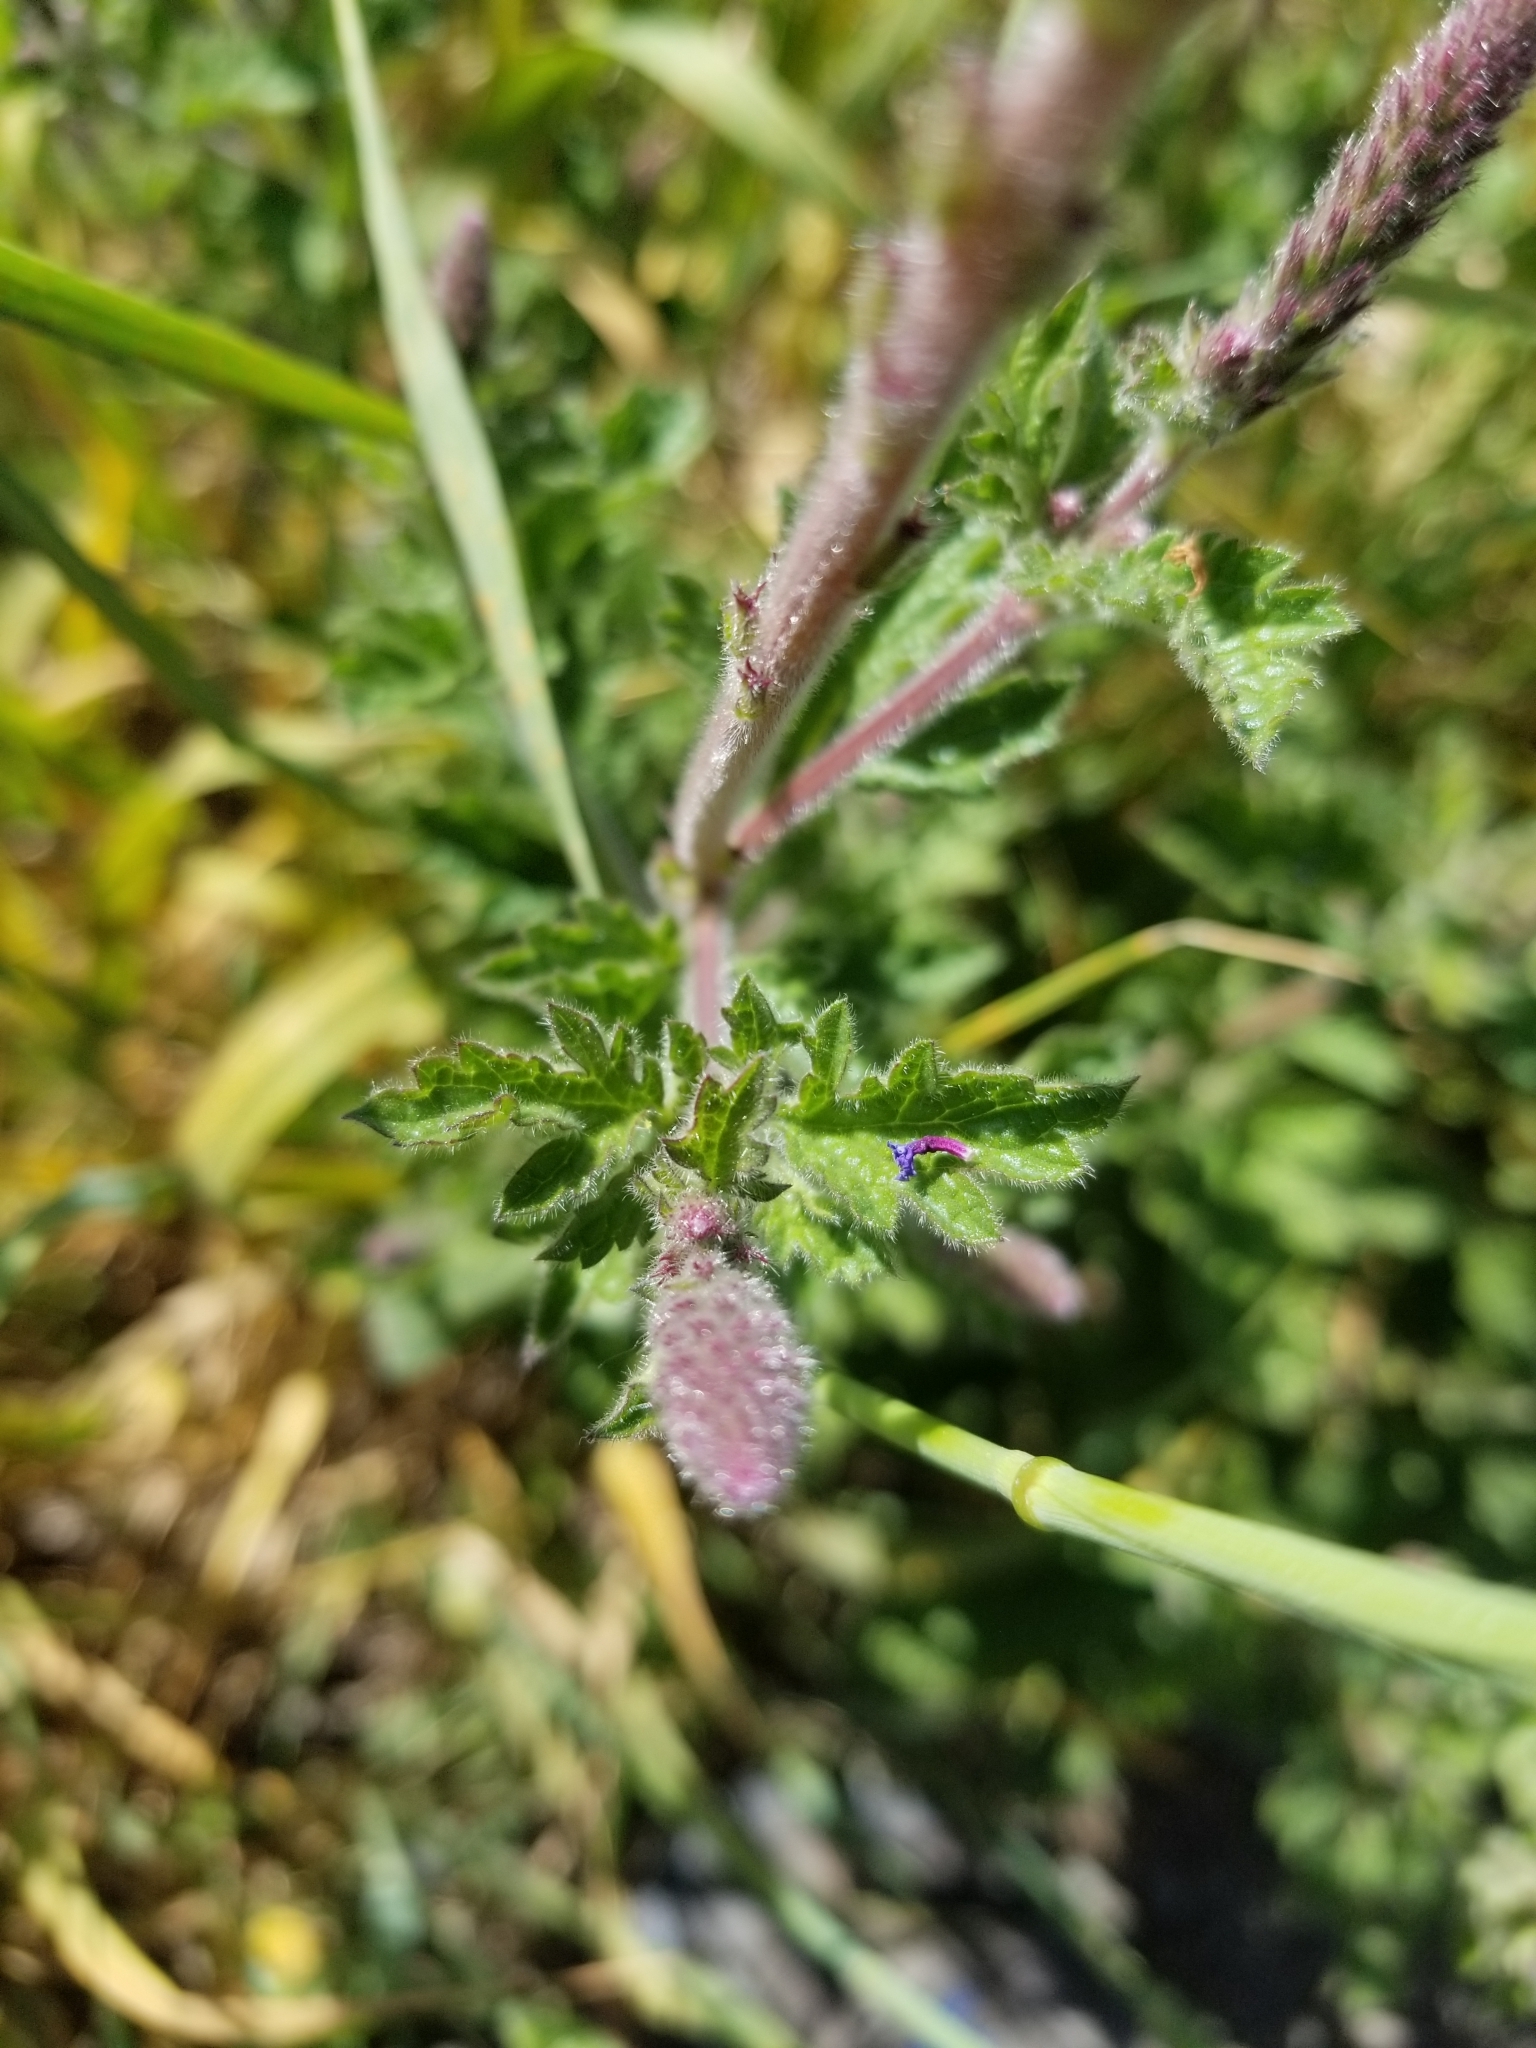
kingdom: Plantae
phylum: Tracheophyta
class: Magnoliopsida
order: Lamiales
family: Verbenaceae
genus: Verbena
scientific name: Verbena lasiostachys
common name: Vervain
